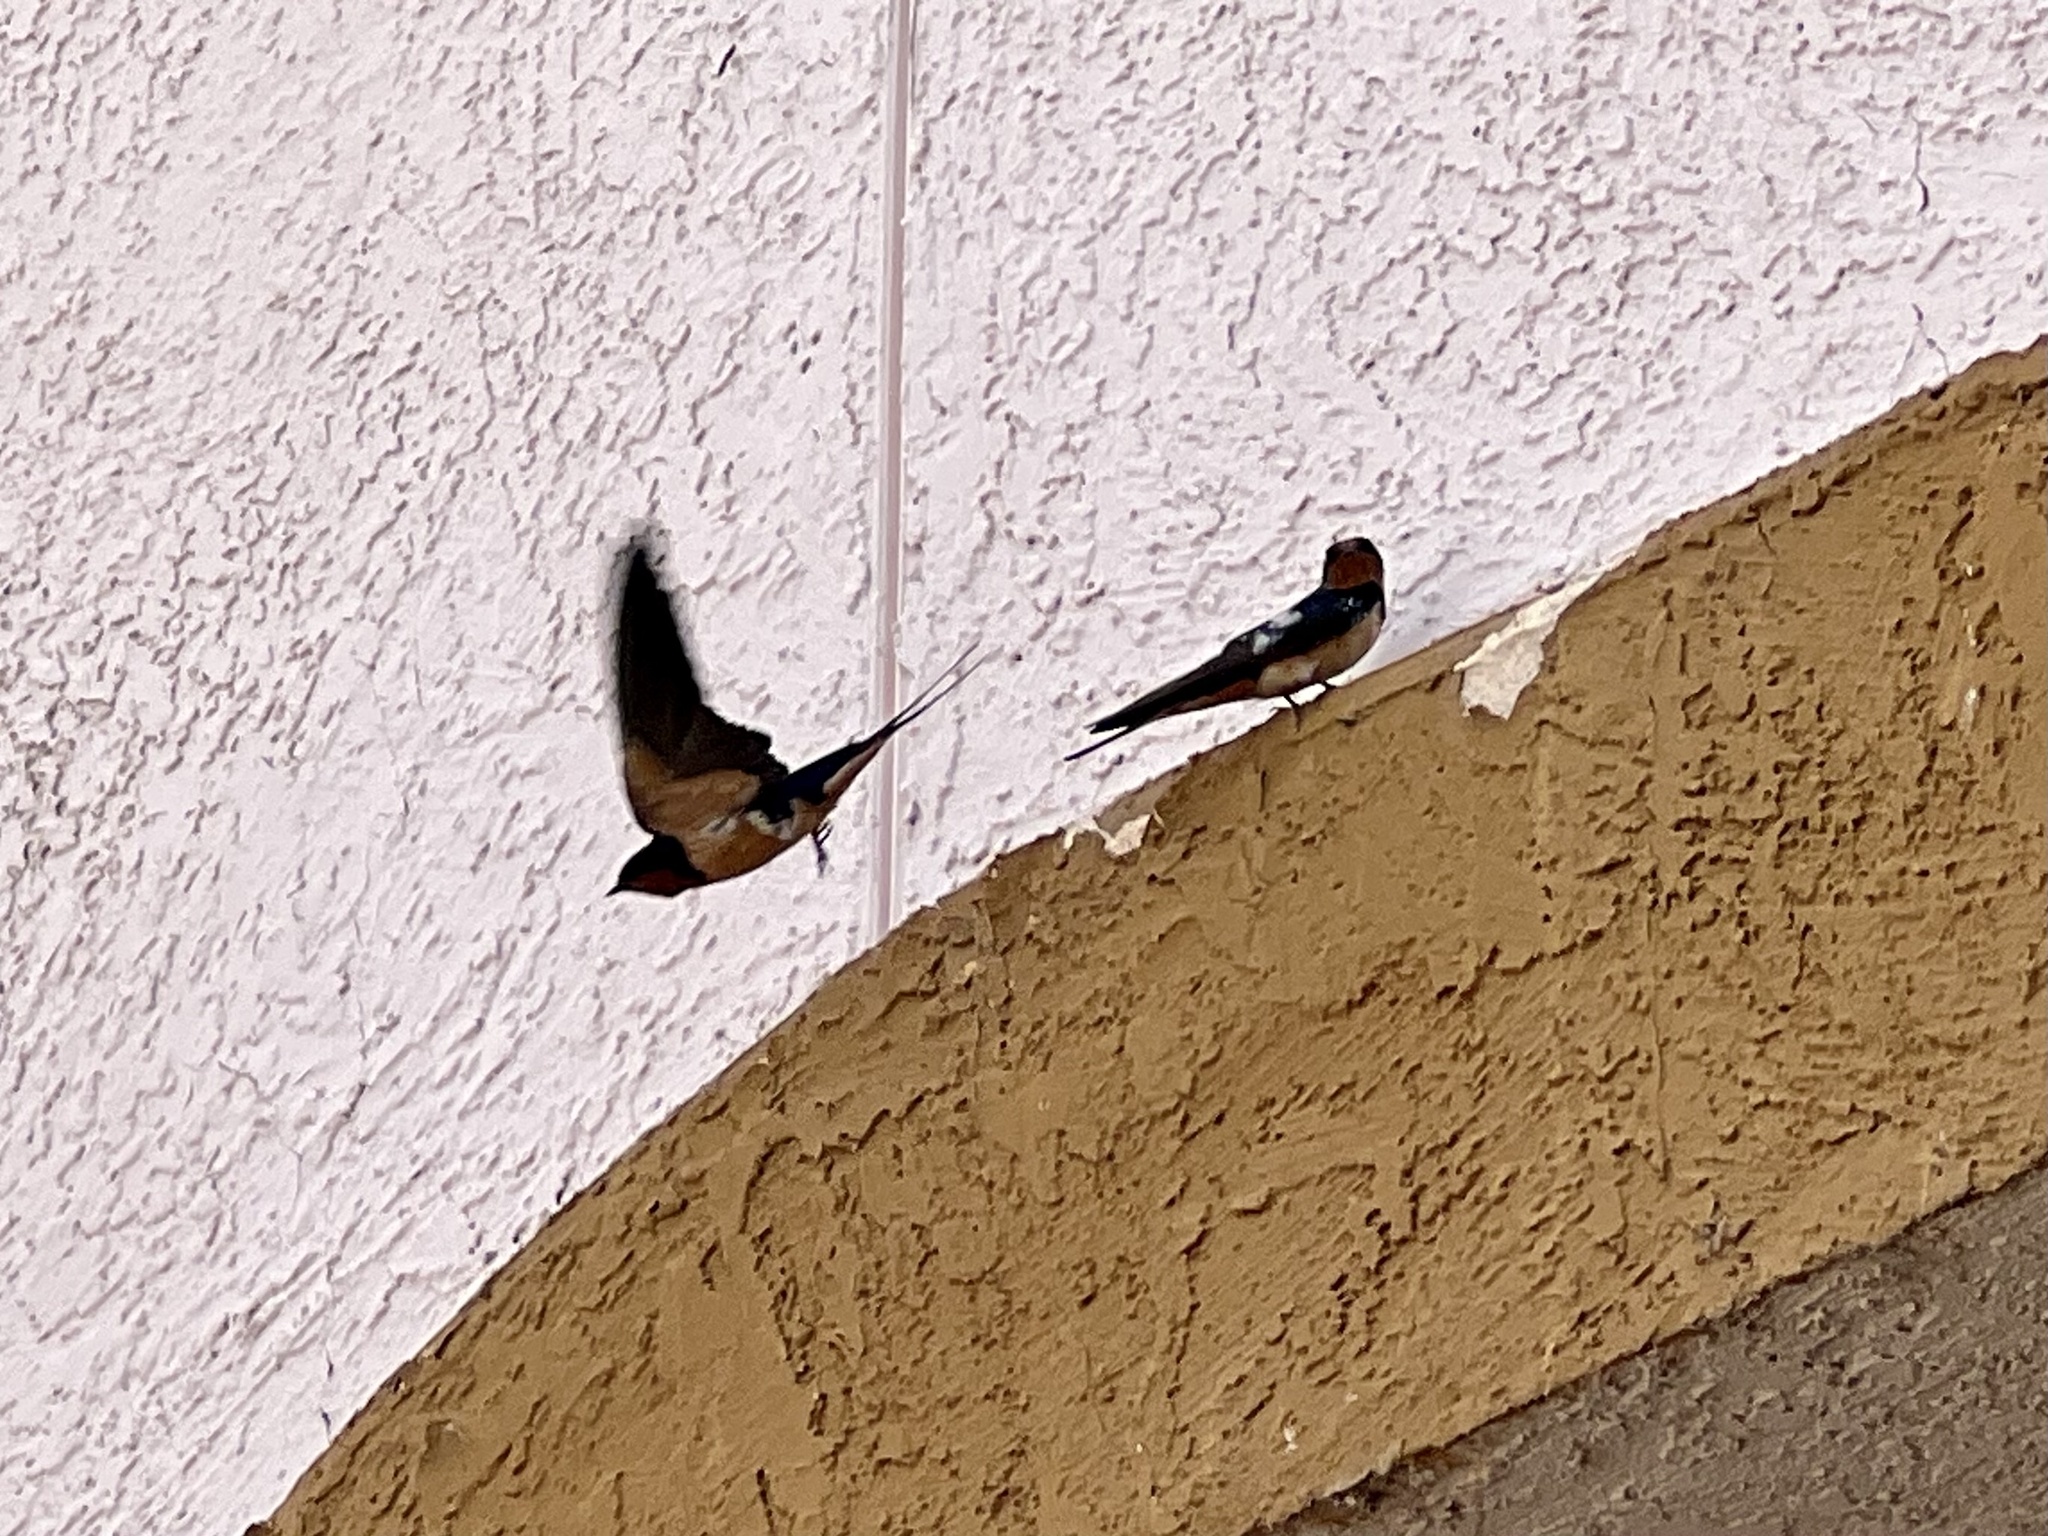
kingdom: Animalia
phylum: Chordata
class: Aves
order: Passeriformes
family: Hirundinidae
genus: Hirundo
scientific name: Hirundo rustica
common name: Barn swallow
